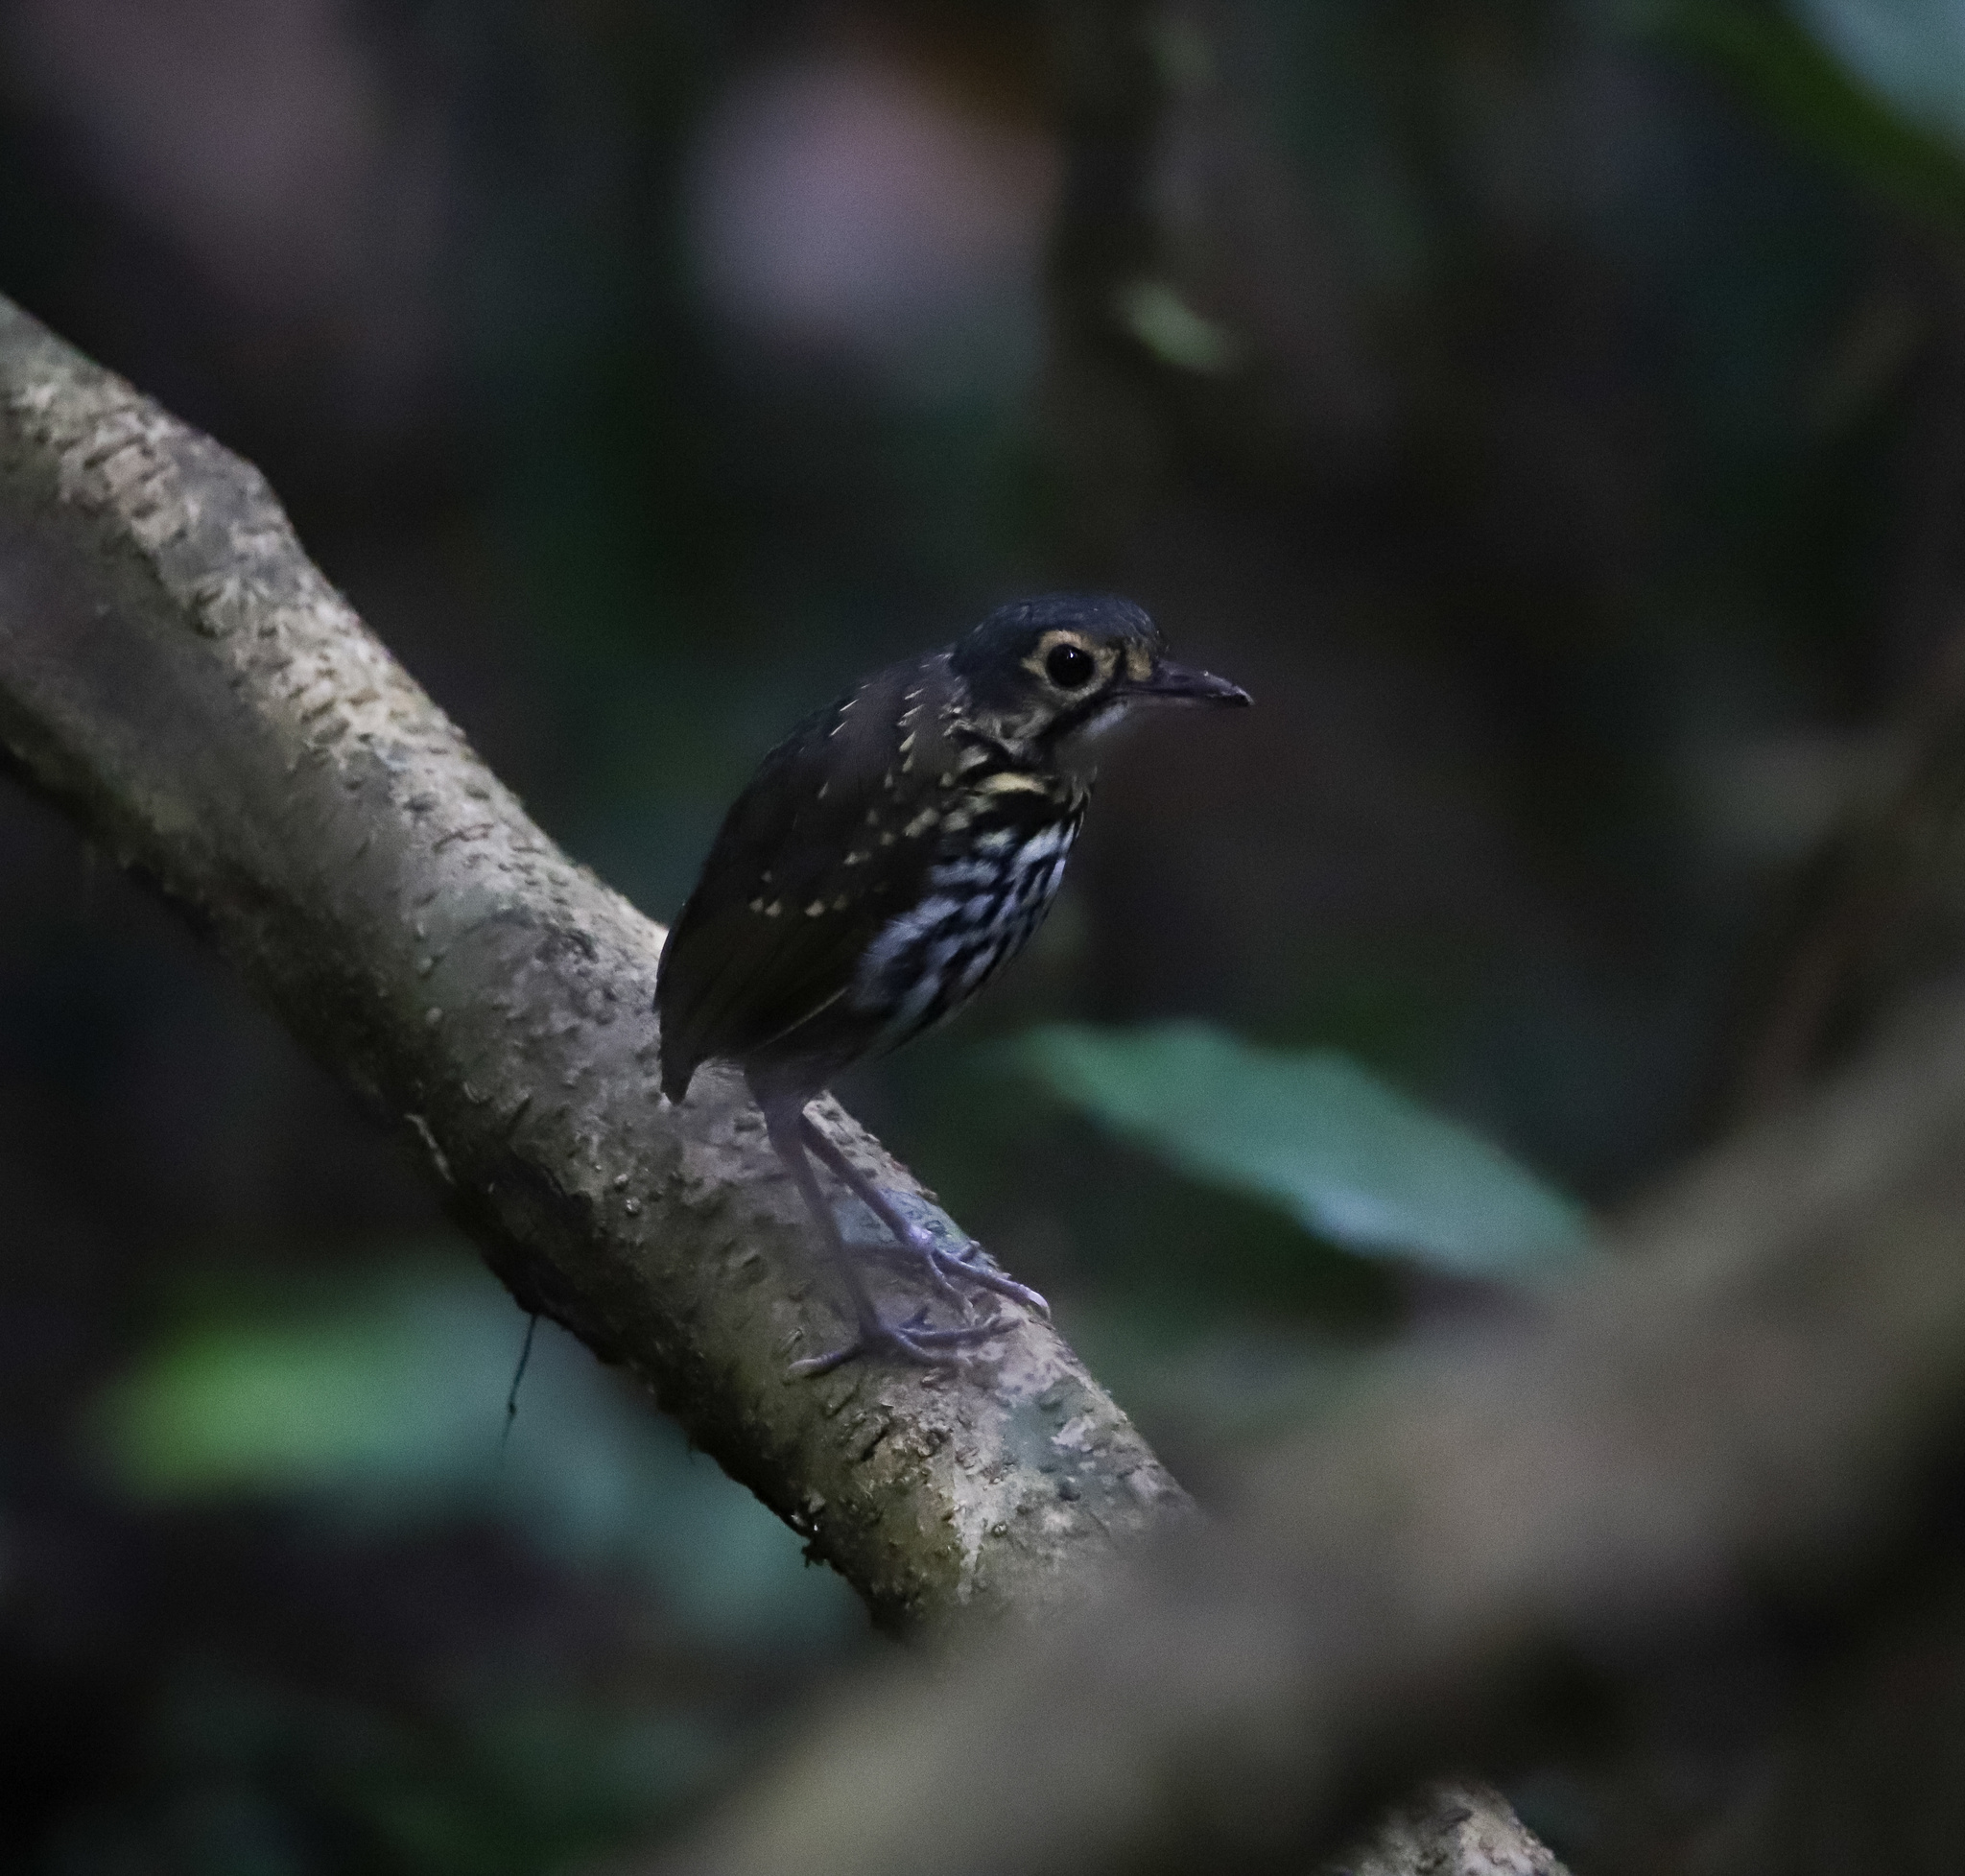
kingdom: Animalia
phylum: Chordata
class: Aves
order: Passeriformes
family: Grallariidae
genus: Hylopezus
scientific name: Hylopezus perspicillatus
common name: Streak-chested antpitta
